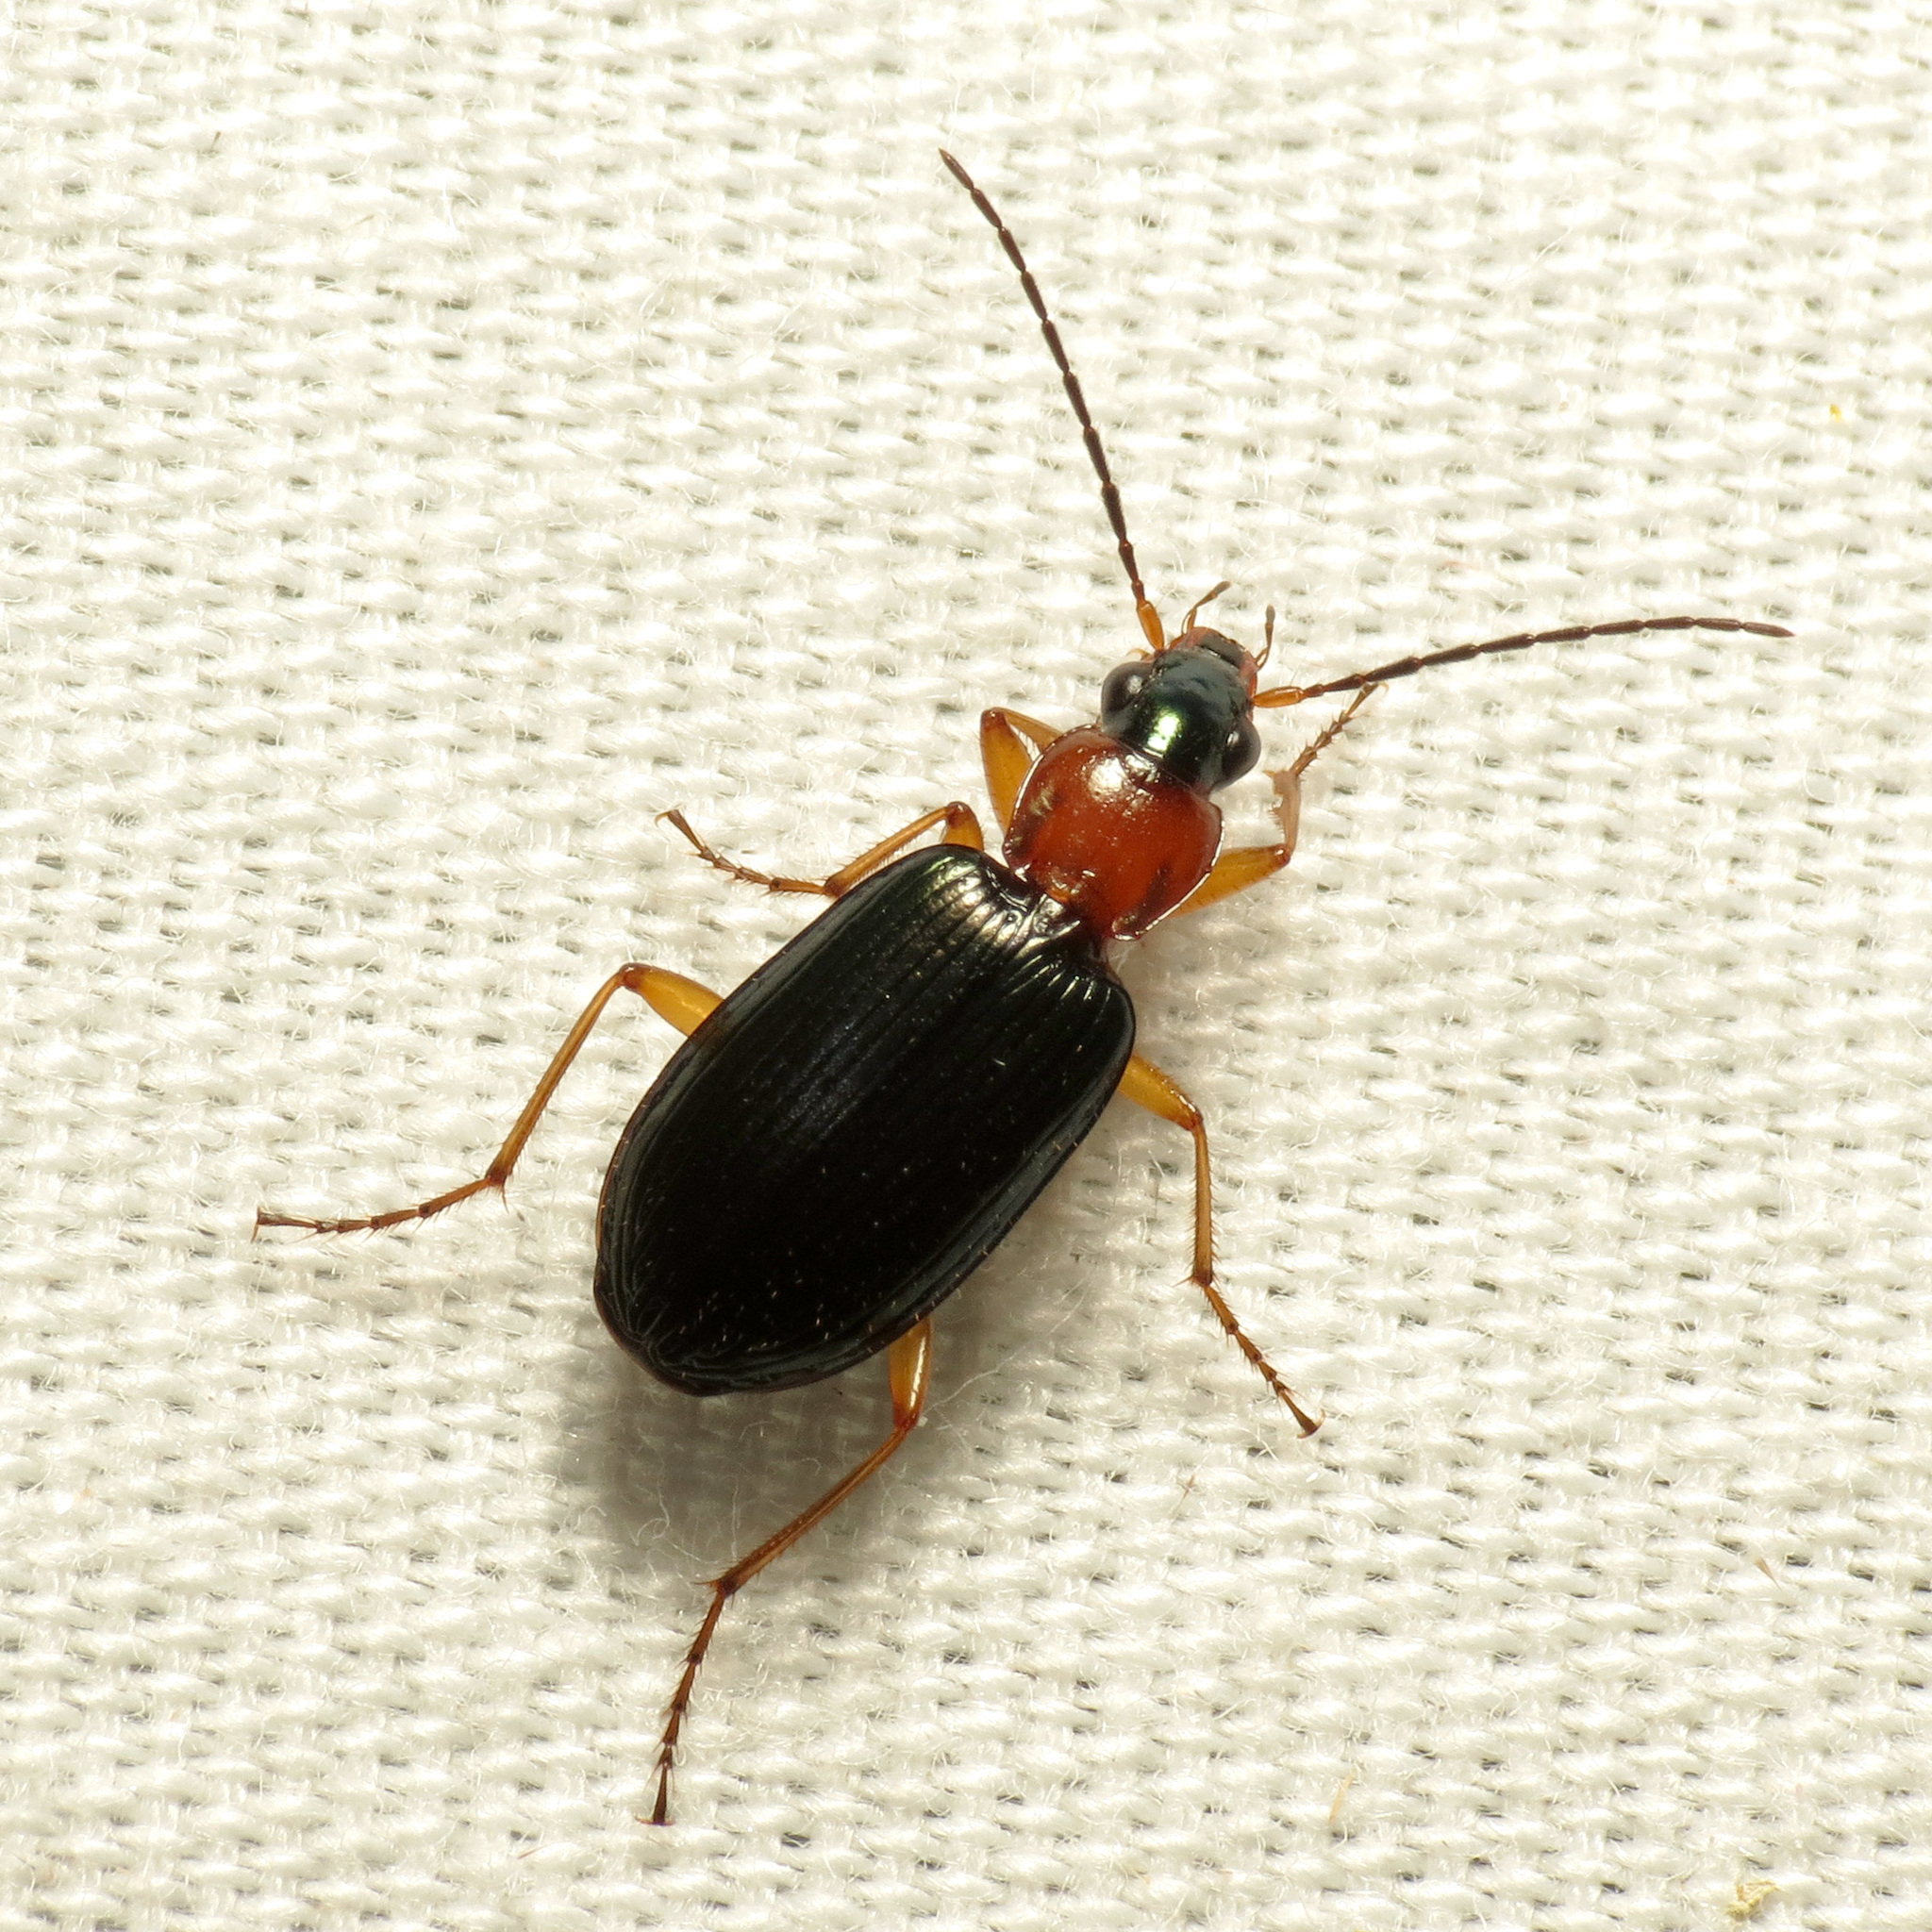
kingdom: Animalia
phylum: Arthropoda
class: Insecta
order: Coleoptera
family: Carabidae
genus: Agonum
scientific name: Agonum decorum
